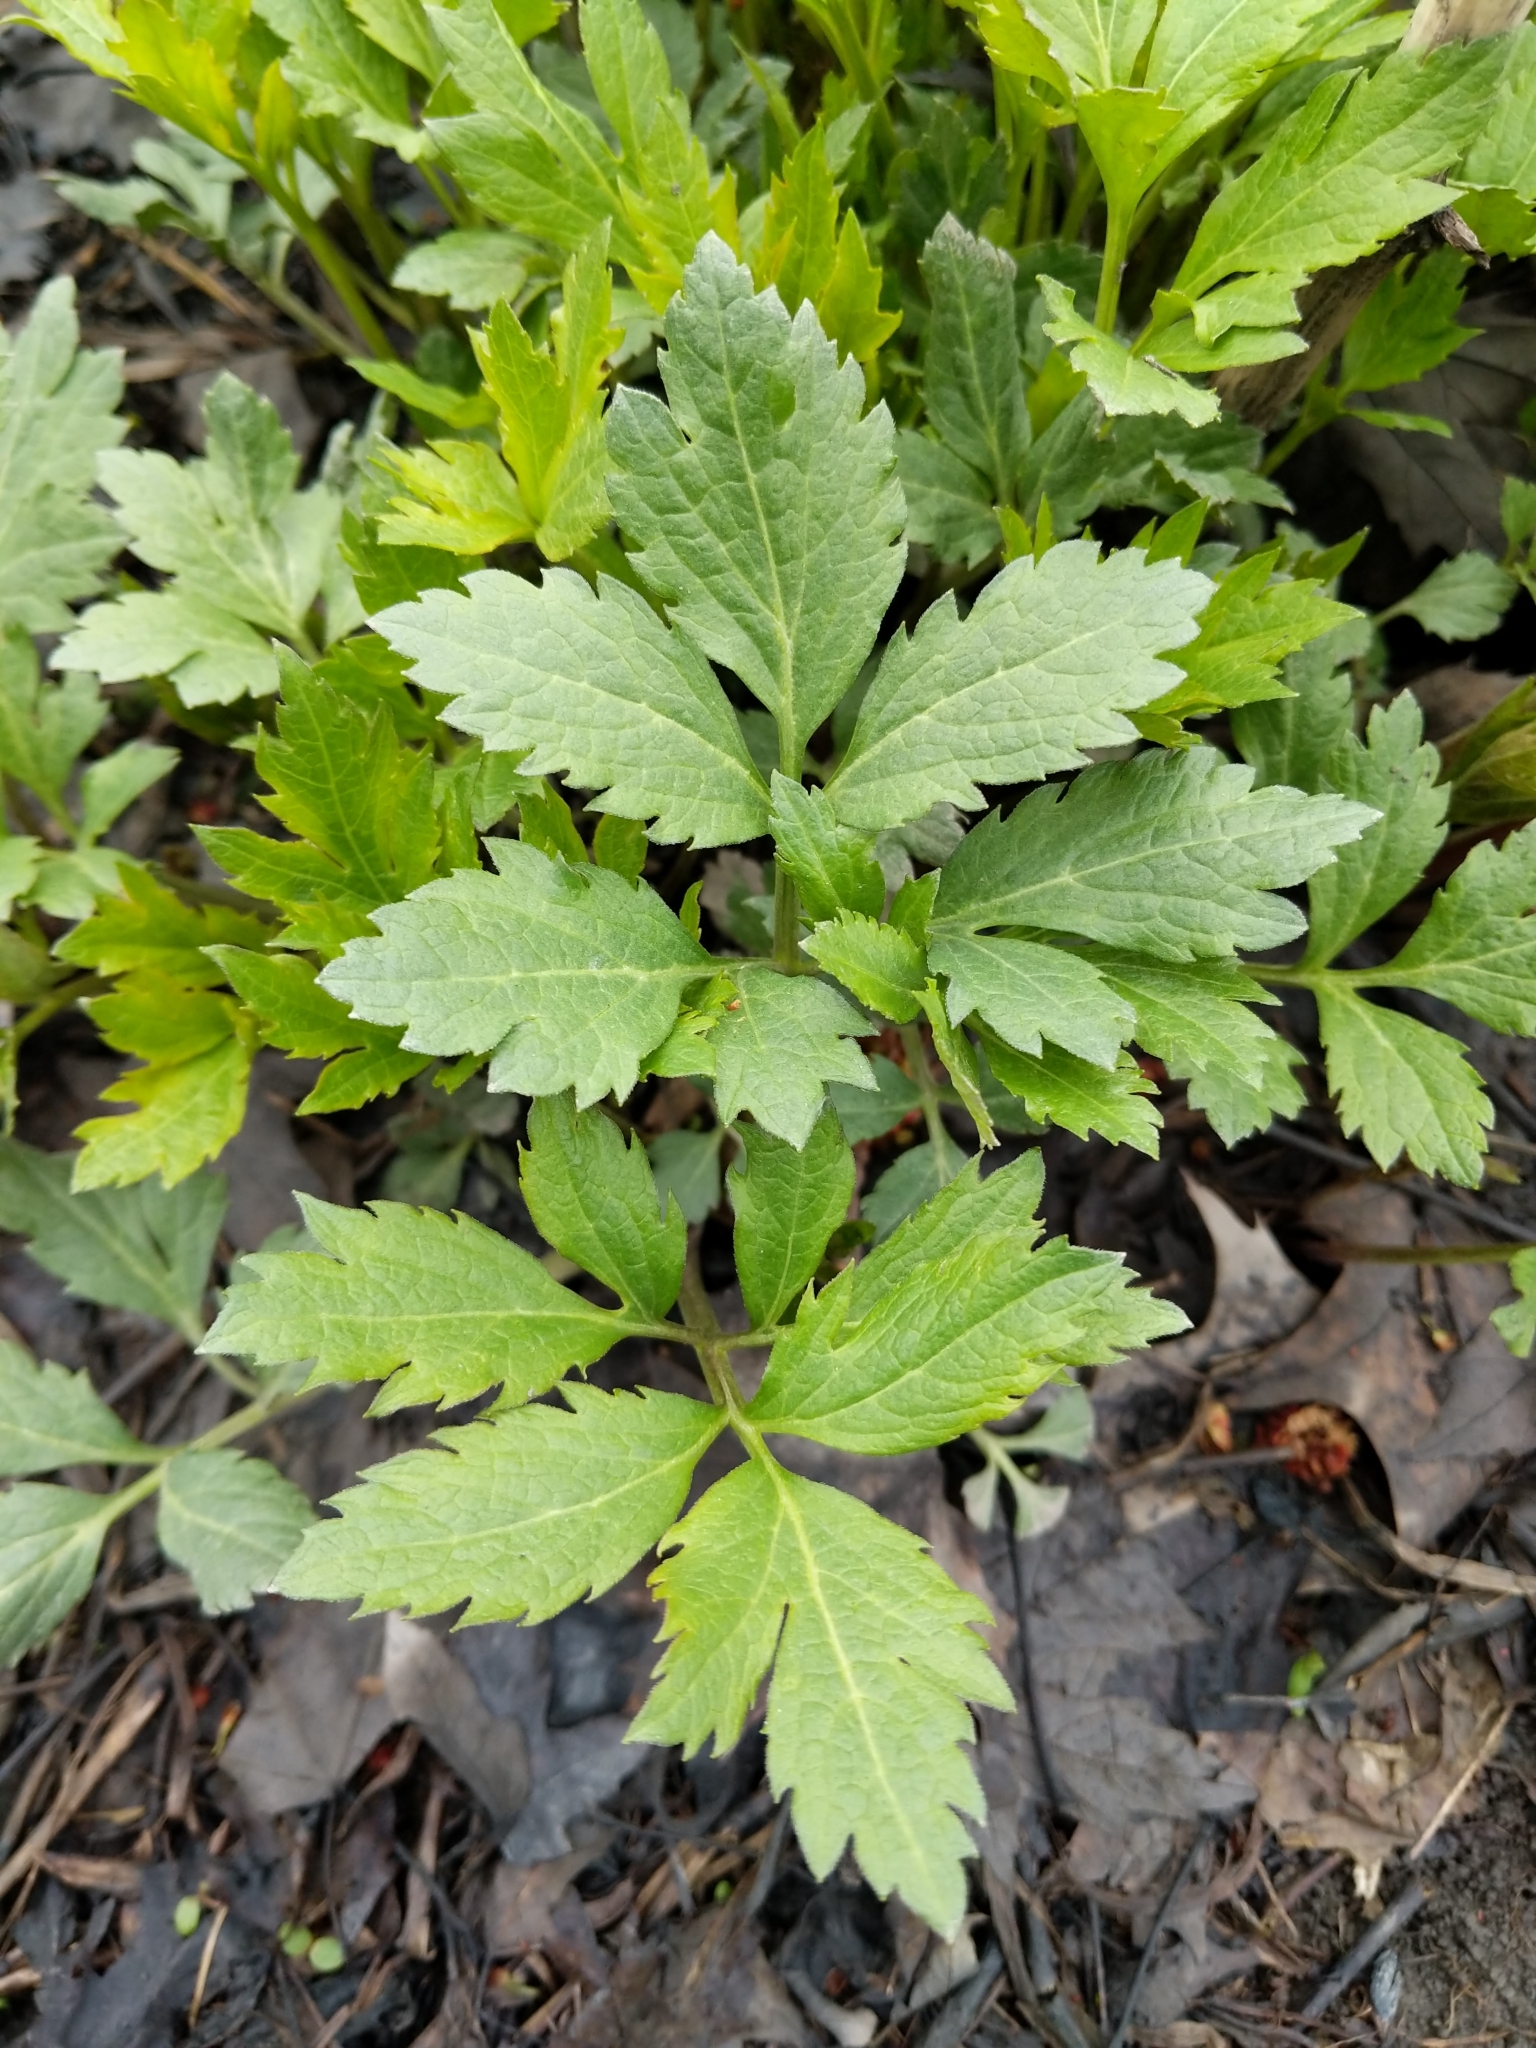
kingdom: Plantae
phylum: Tracheophyta
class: Magnoliopsida
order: Asterales
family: Asteraceae
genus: Rudbeckia
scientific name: Rudbeckia laciniata
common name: Coneflower
